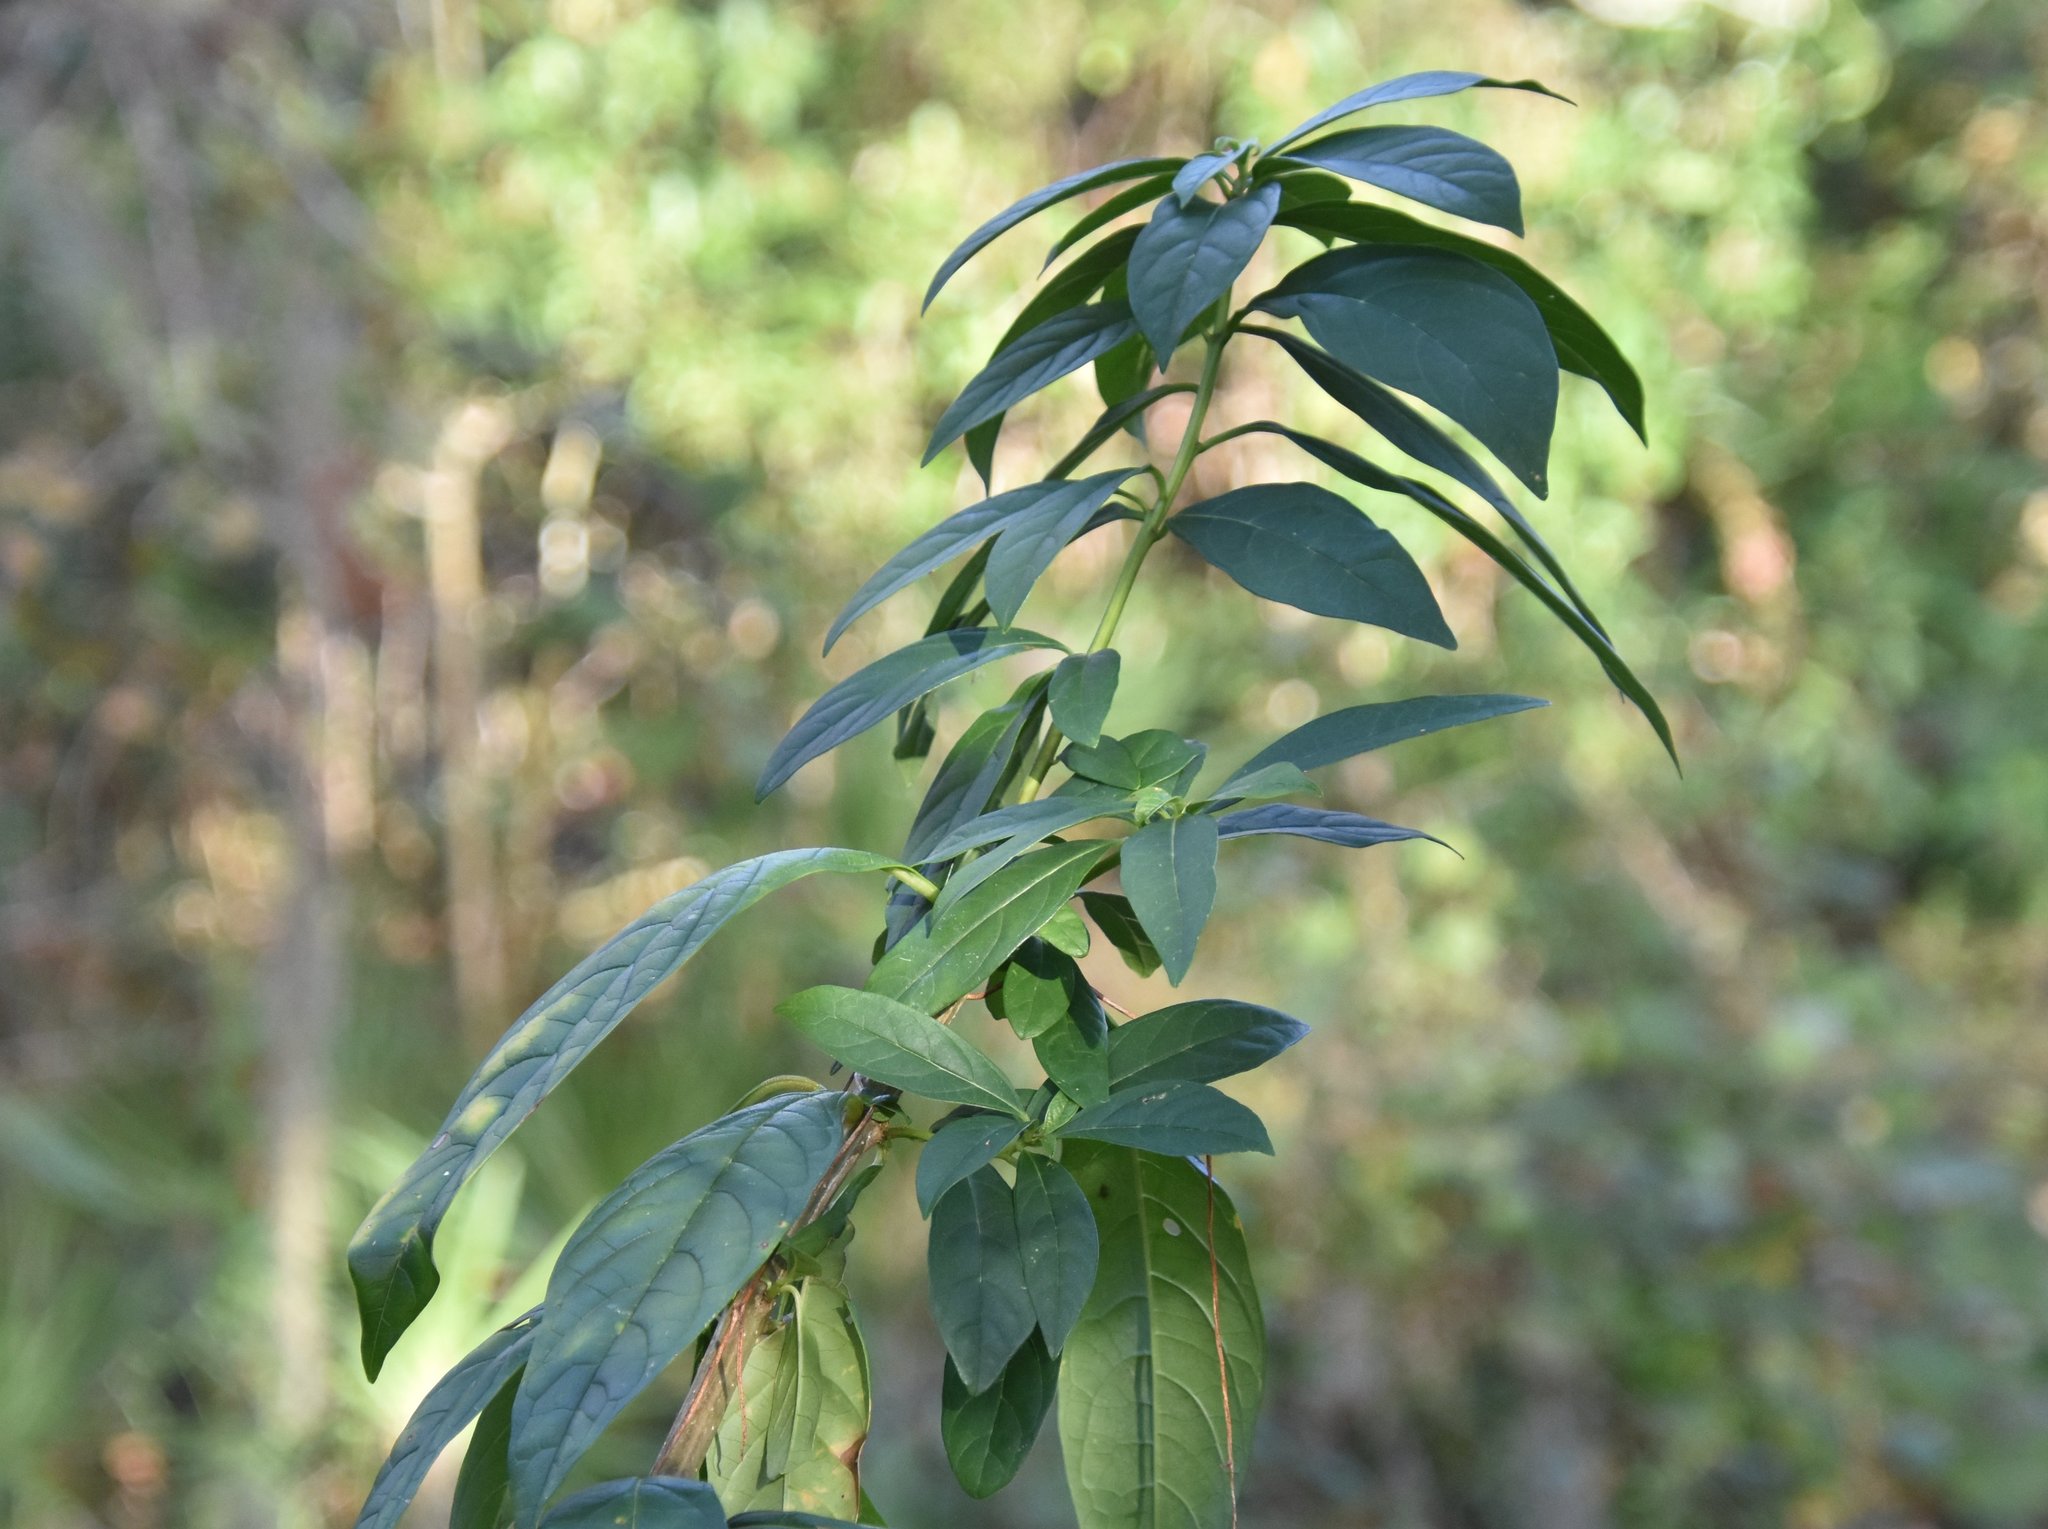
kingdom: Plantae
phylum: Tracheophyta
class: Magnoliopsida
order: Lamiales
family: Lamiaceae
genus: Clerodendrum
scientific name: Clerodendrum indicum
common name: Turk's turbin
